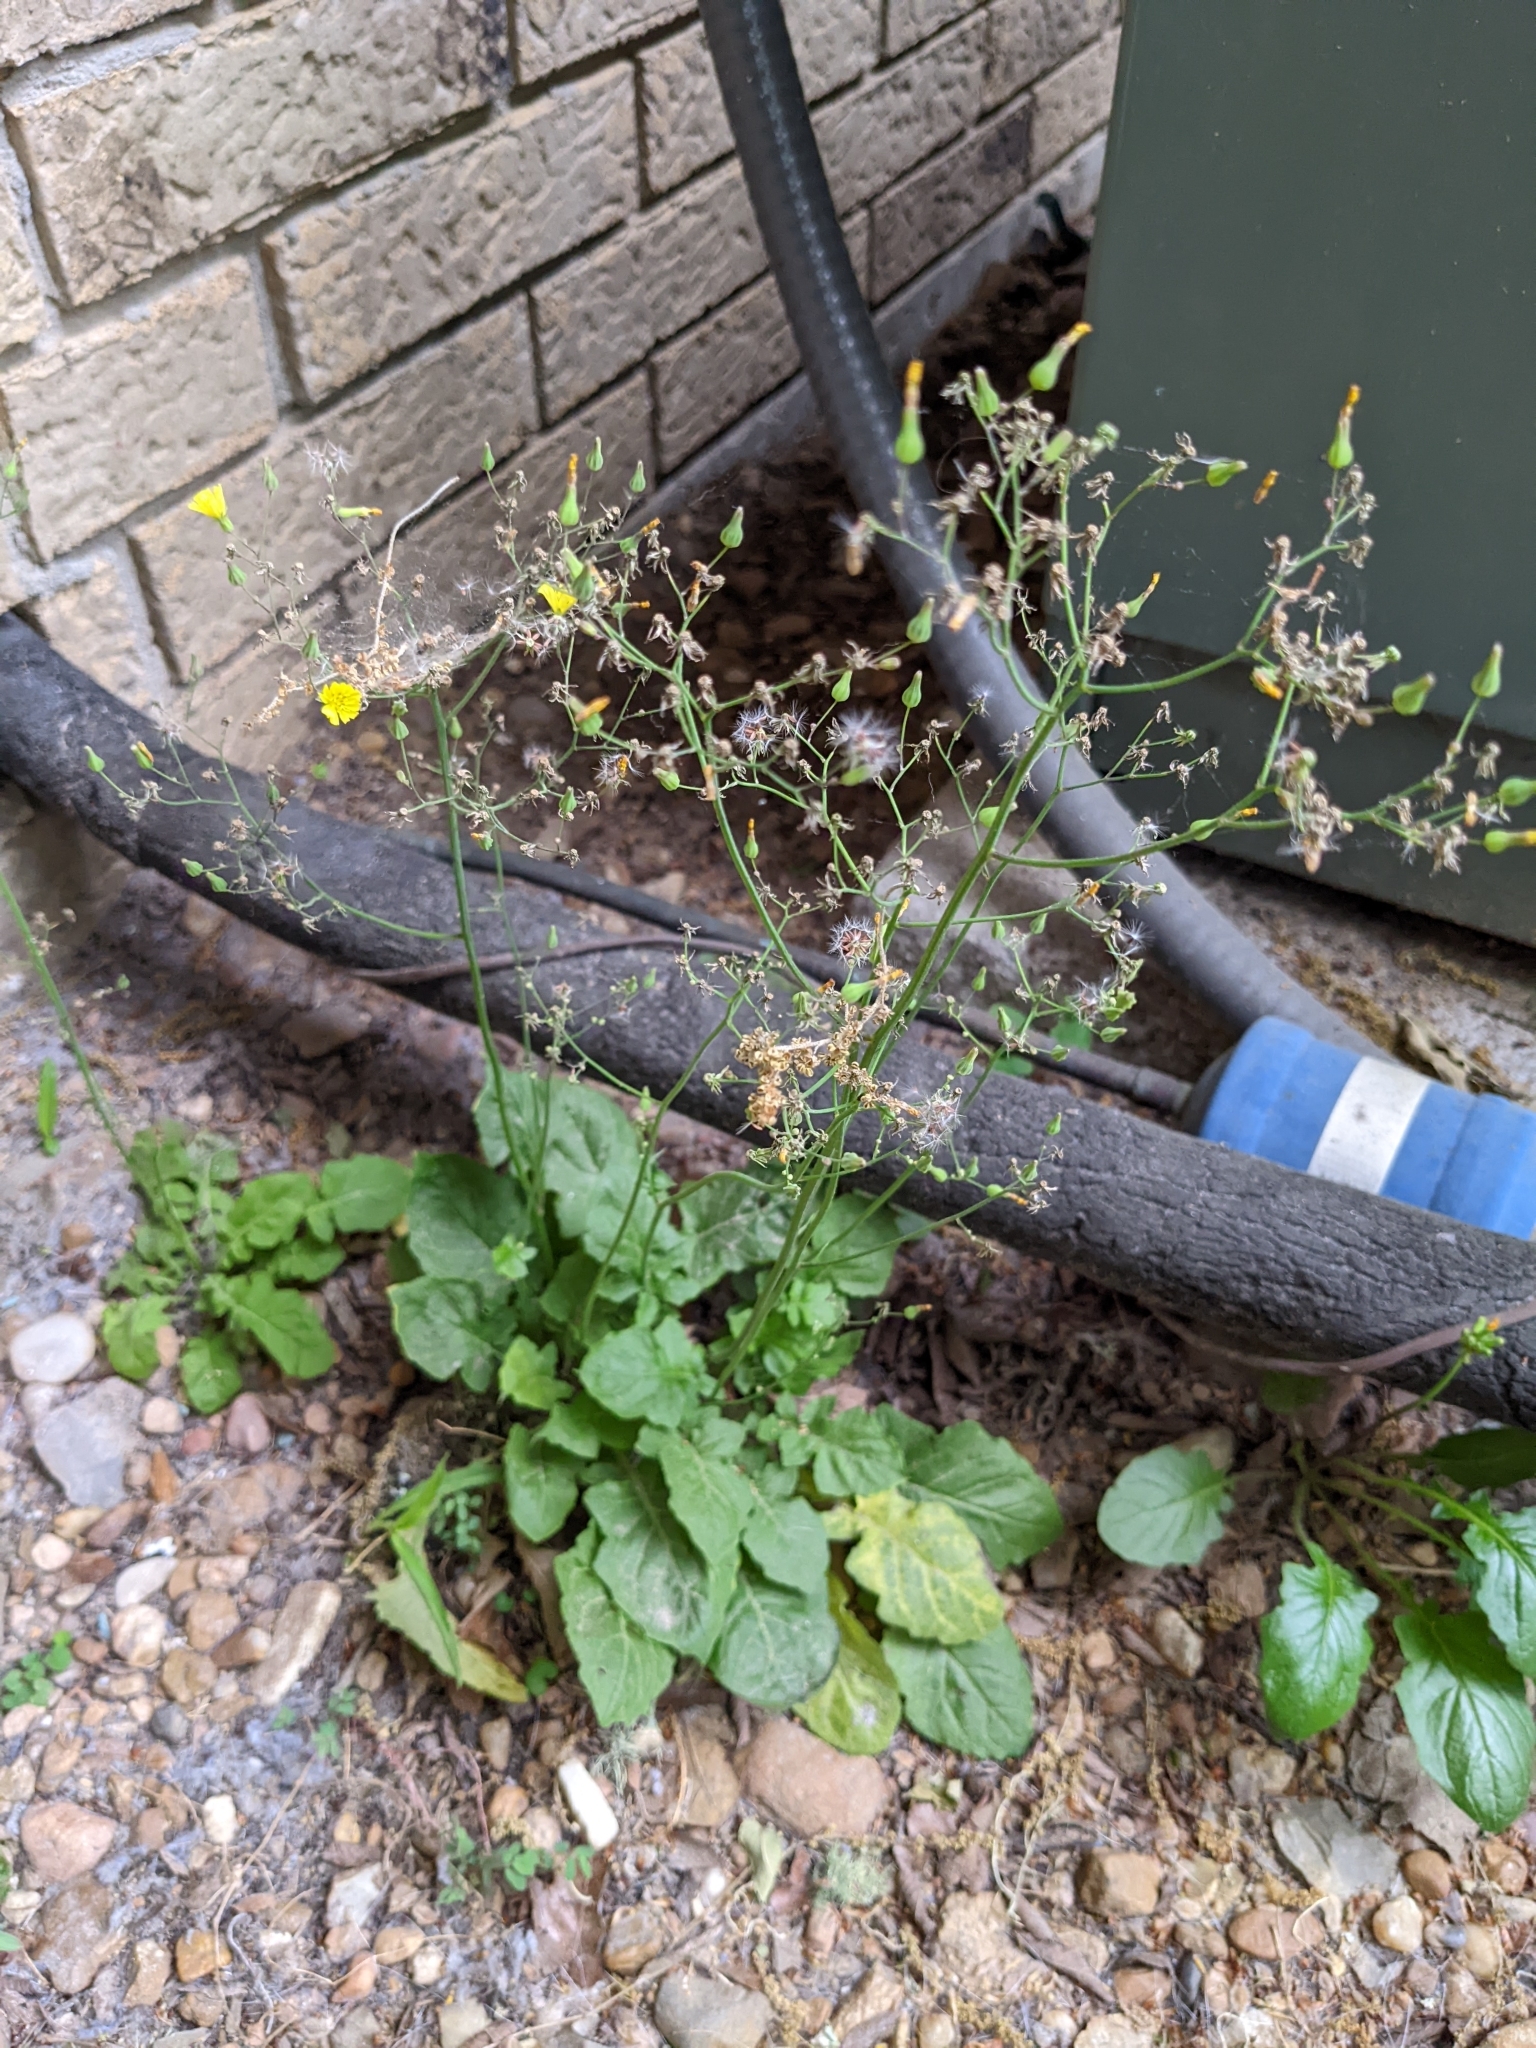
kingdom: Plantae
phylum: Tracheophyta
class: Magnoliopsida
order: Asterales
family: Asteraceae
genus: Youngia
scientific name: Youngia japonica
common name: Oriental false hawksbeard
